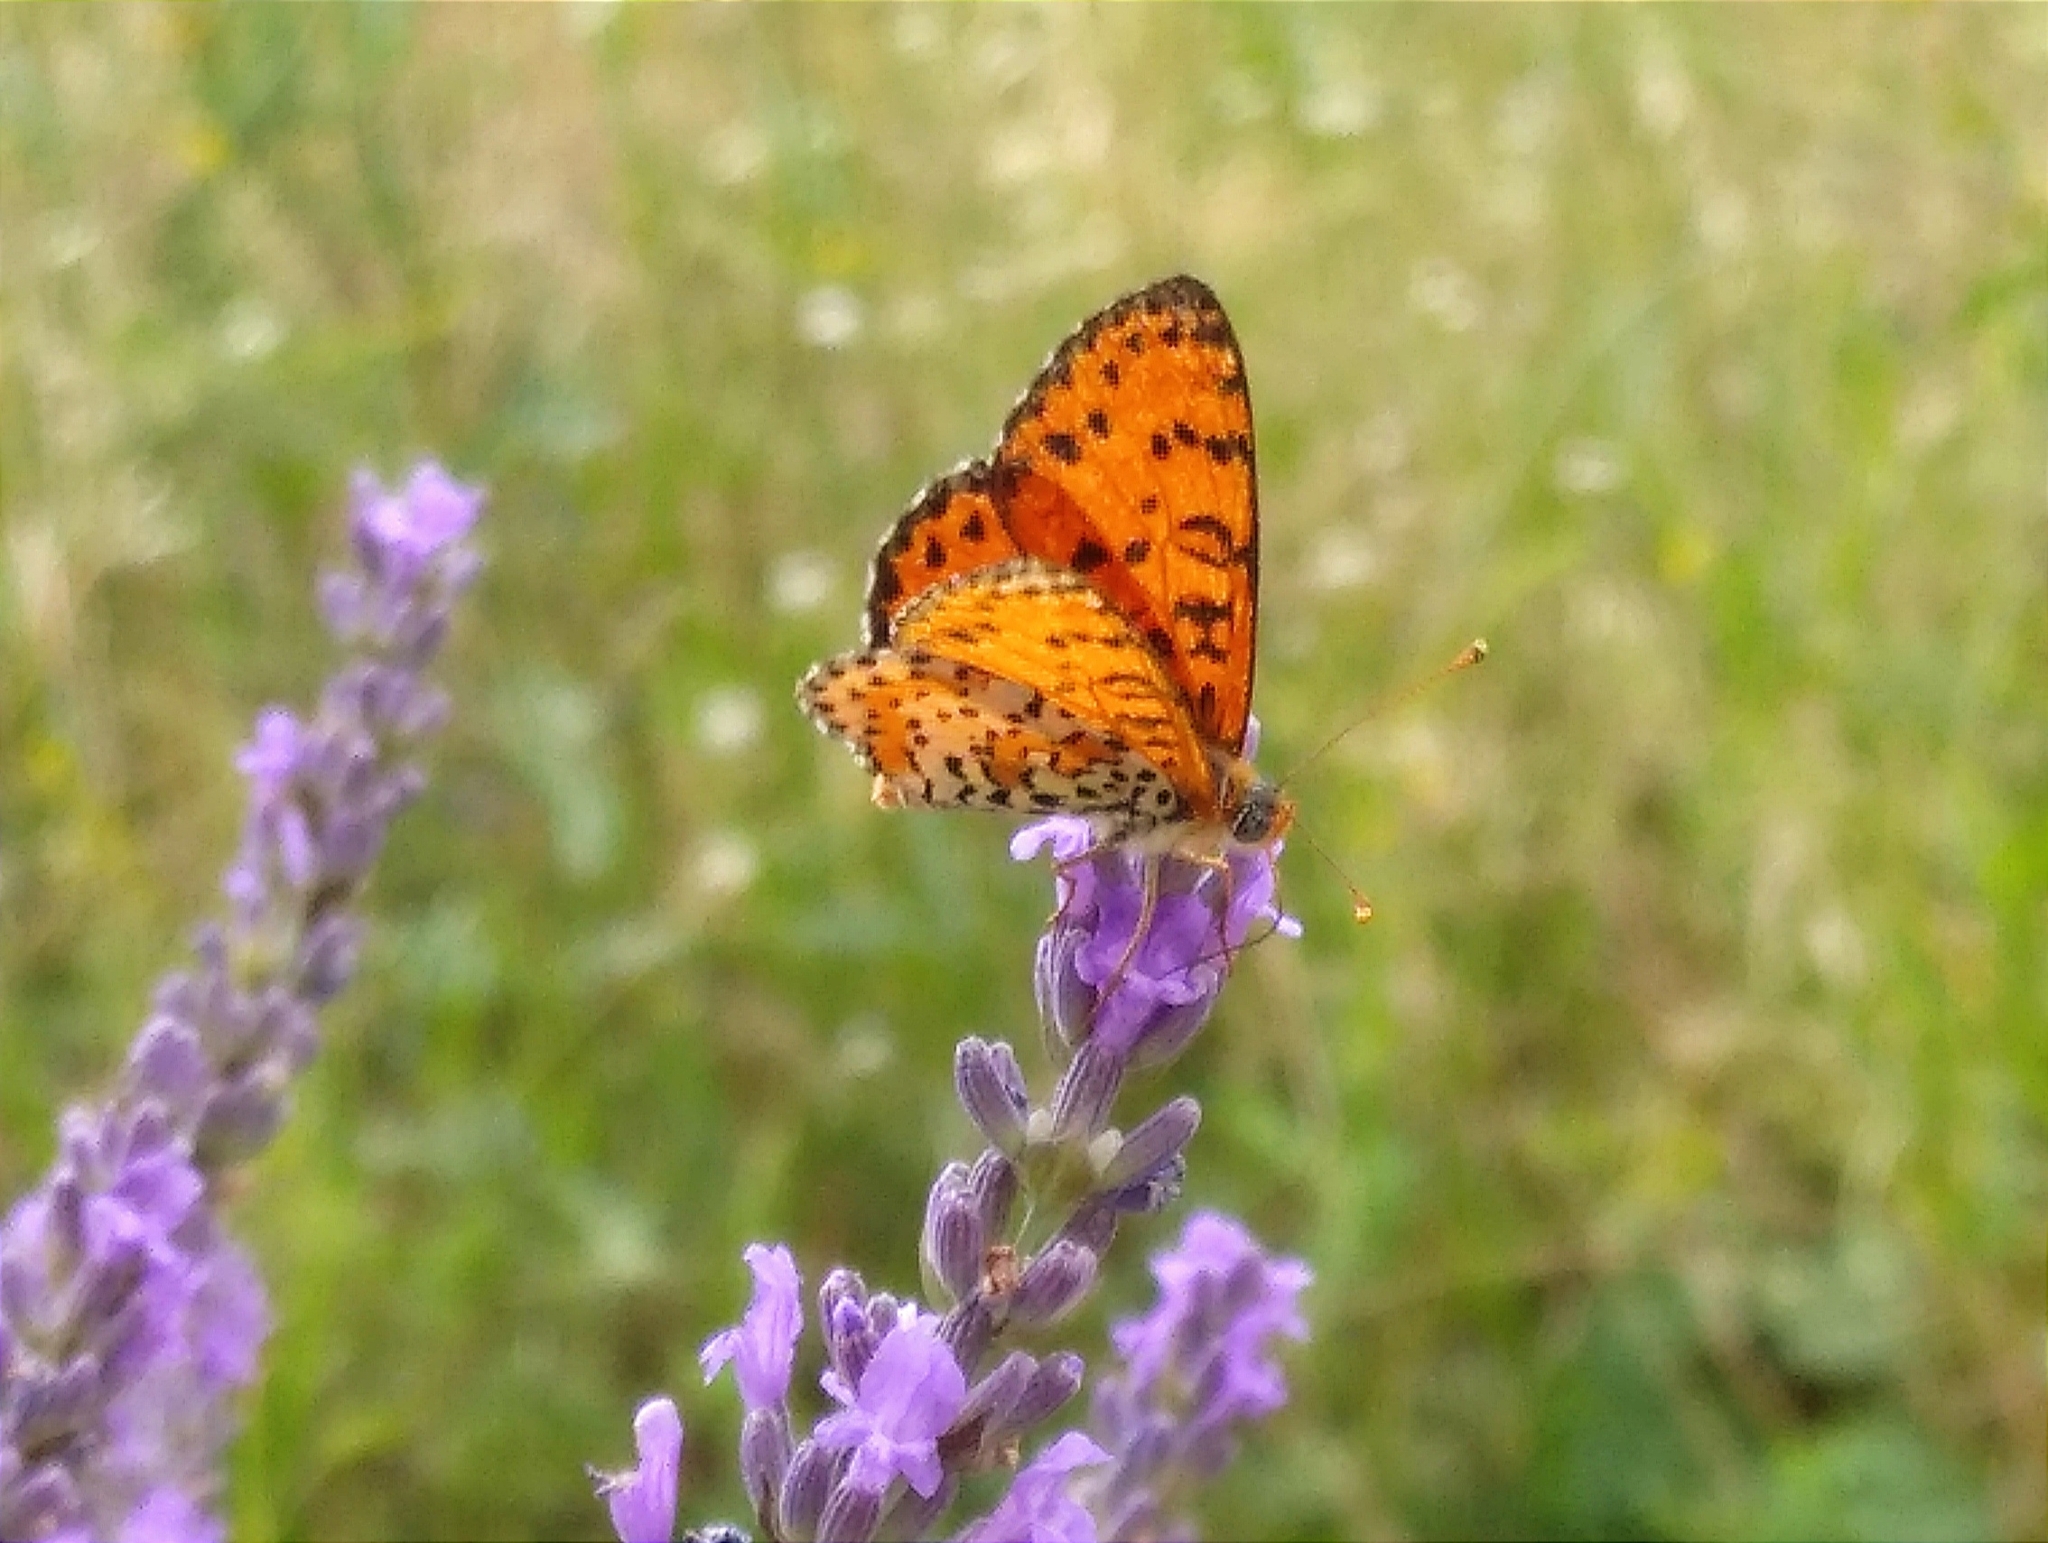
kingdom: Animalia
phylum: Arthropoda
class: Insecta
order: Lepidoptera
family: Nymphalidae
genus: Melitaea
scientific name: Melitaea didyma
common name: Spotted fritillary
